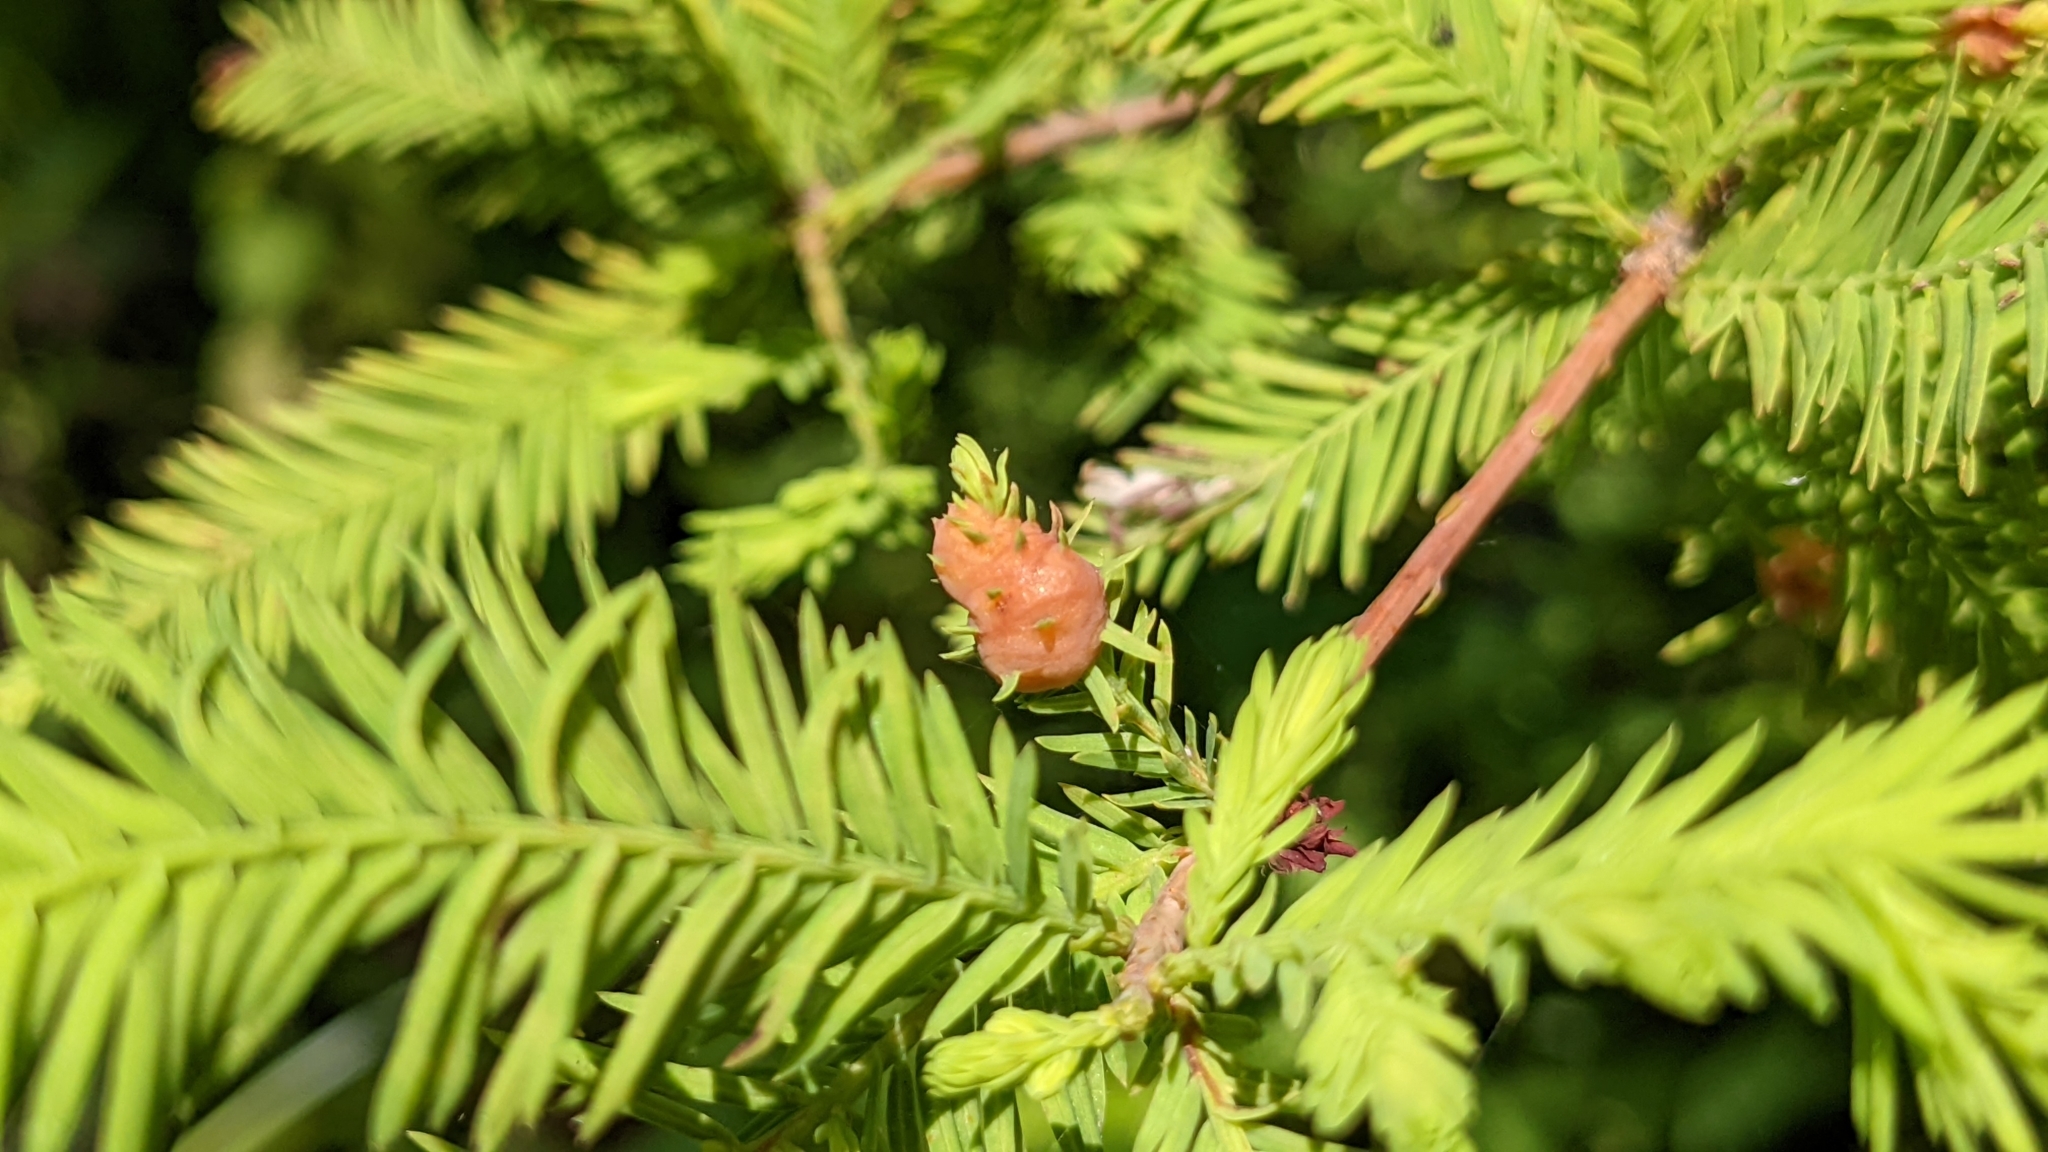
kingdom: Animalia
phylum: Arthropoda
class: Insecta
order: Diptera
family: Cecidomyiidae
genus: Taxodiomyia
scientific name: Taxodiomyia cupressiananassa
